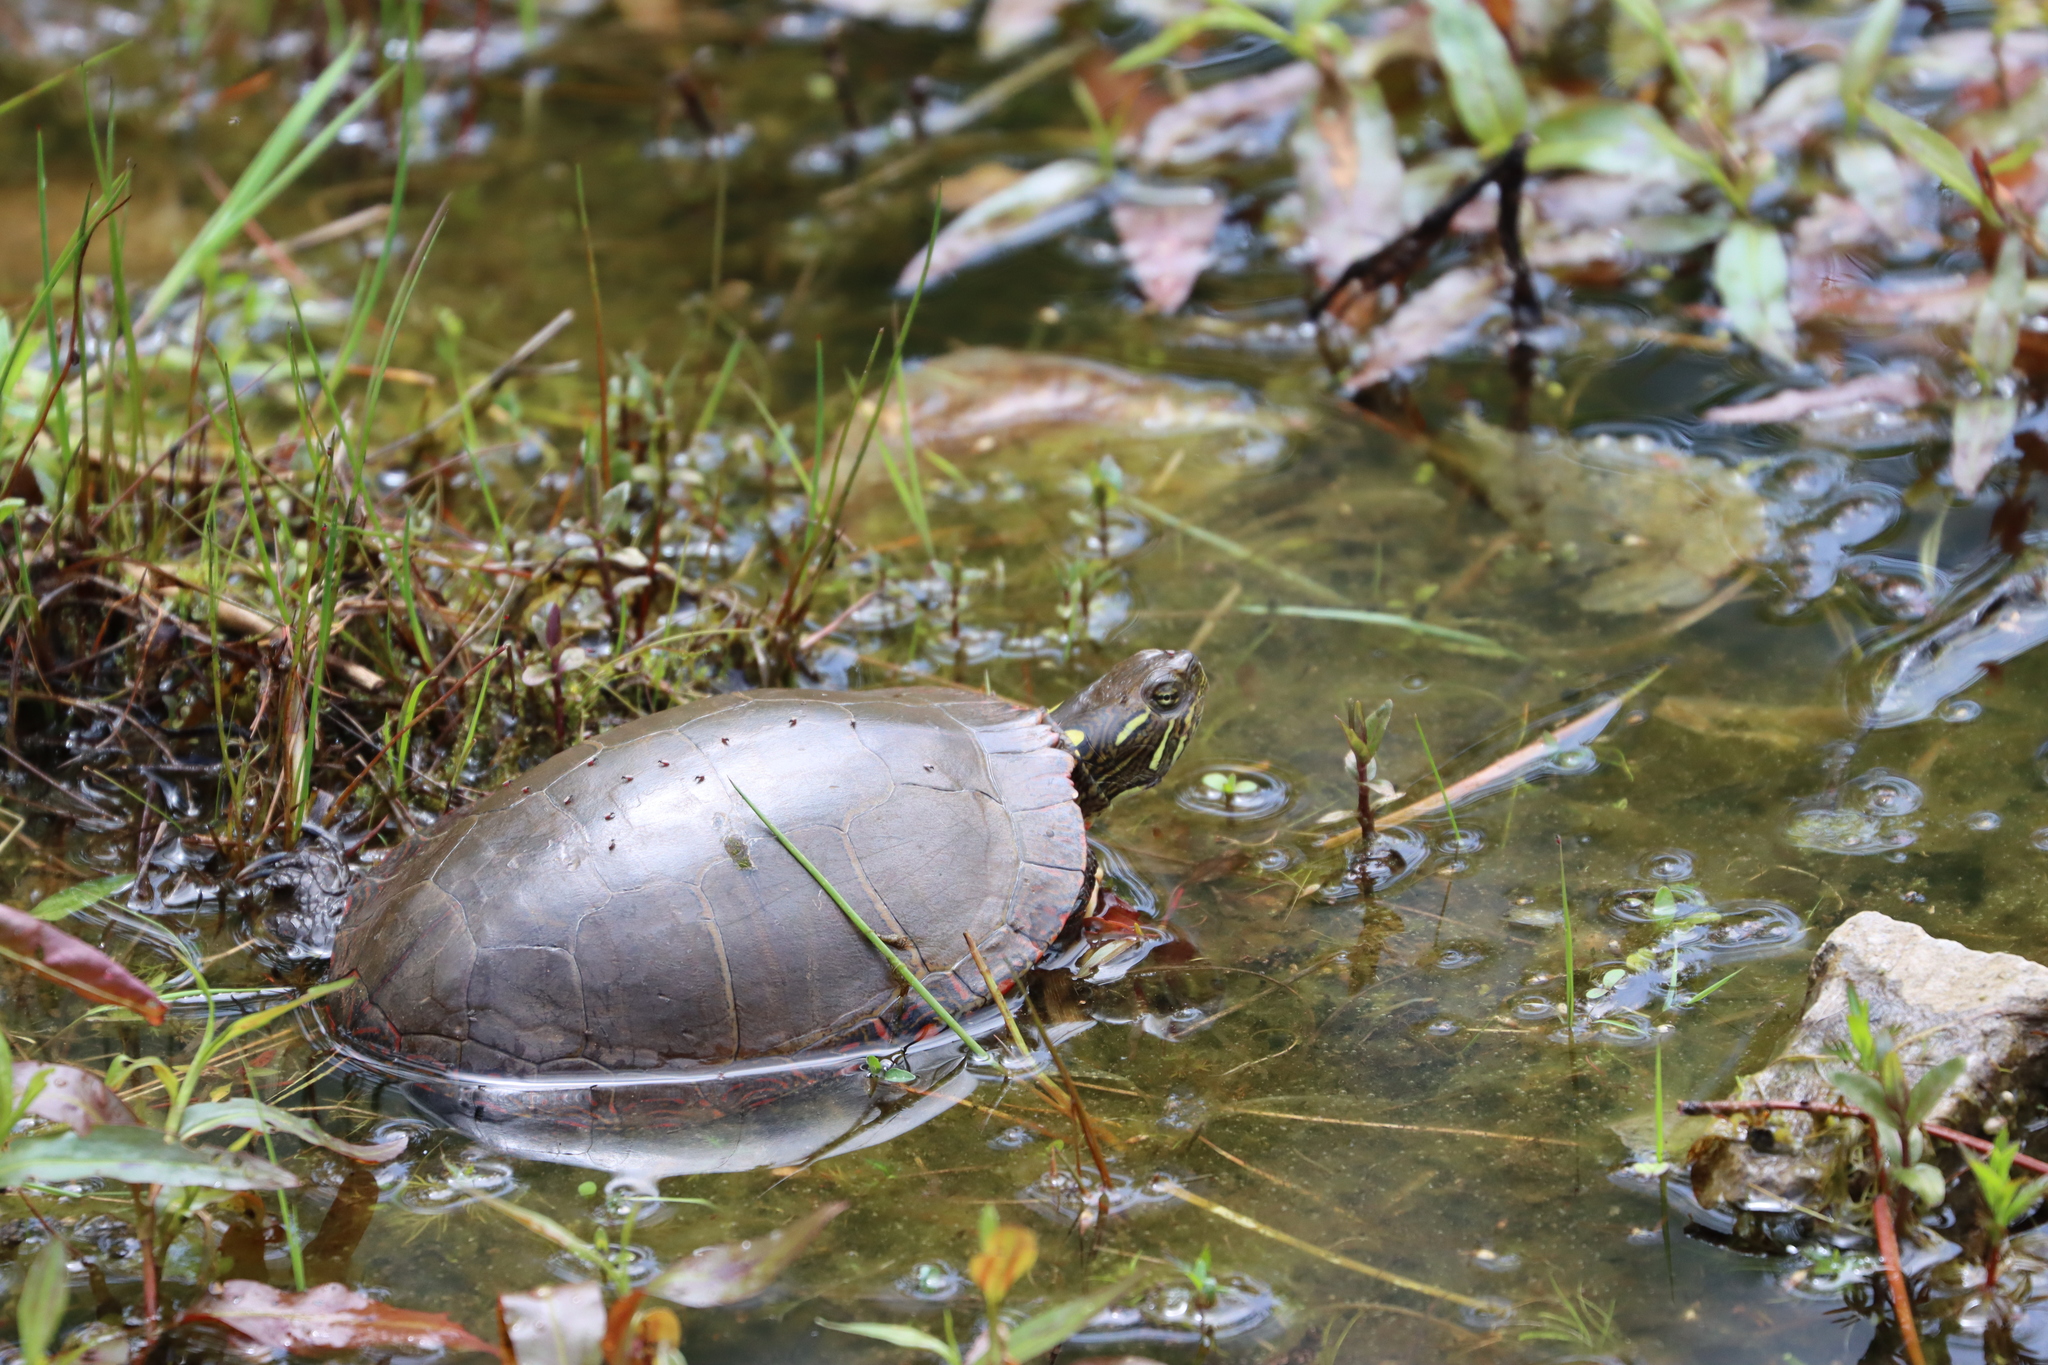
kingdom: Animalia
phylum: Chordata
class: Testudines
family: Emydidae
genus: Chrysemys
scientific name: Chrysemys picta
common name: Painted turtle
